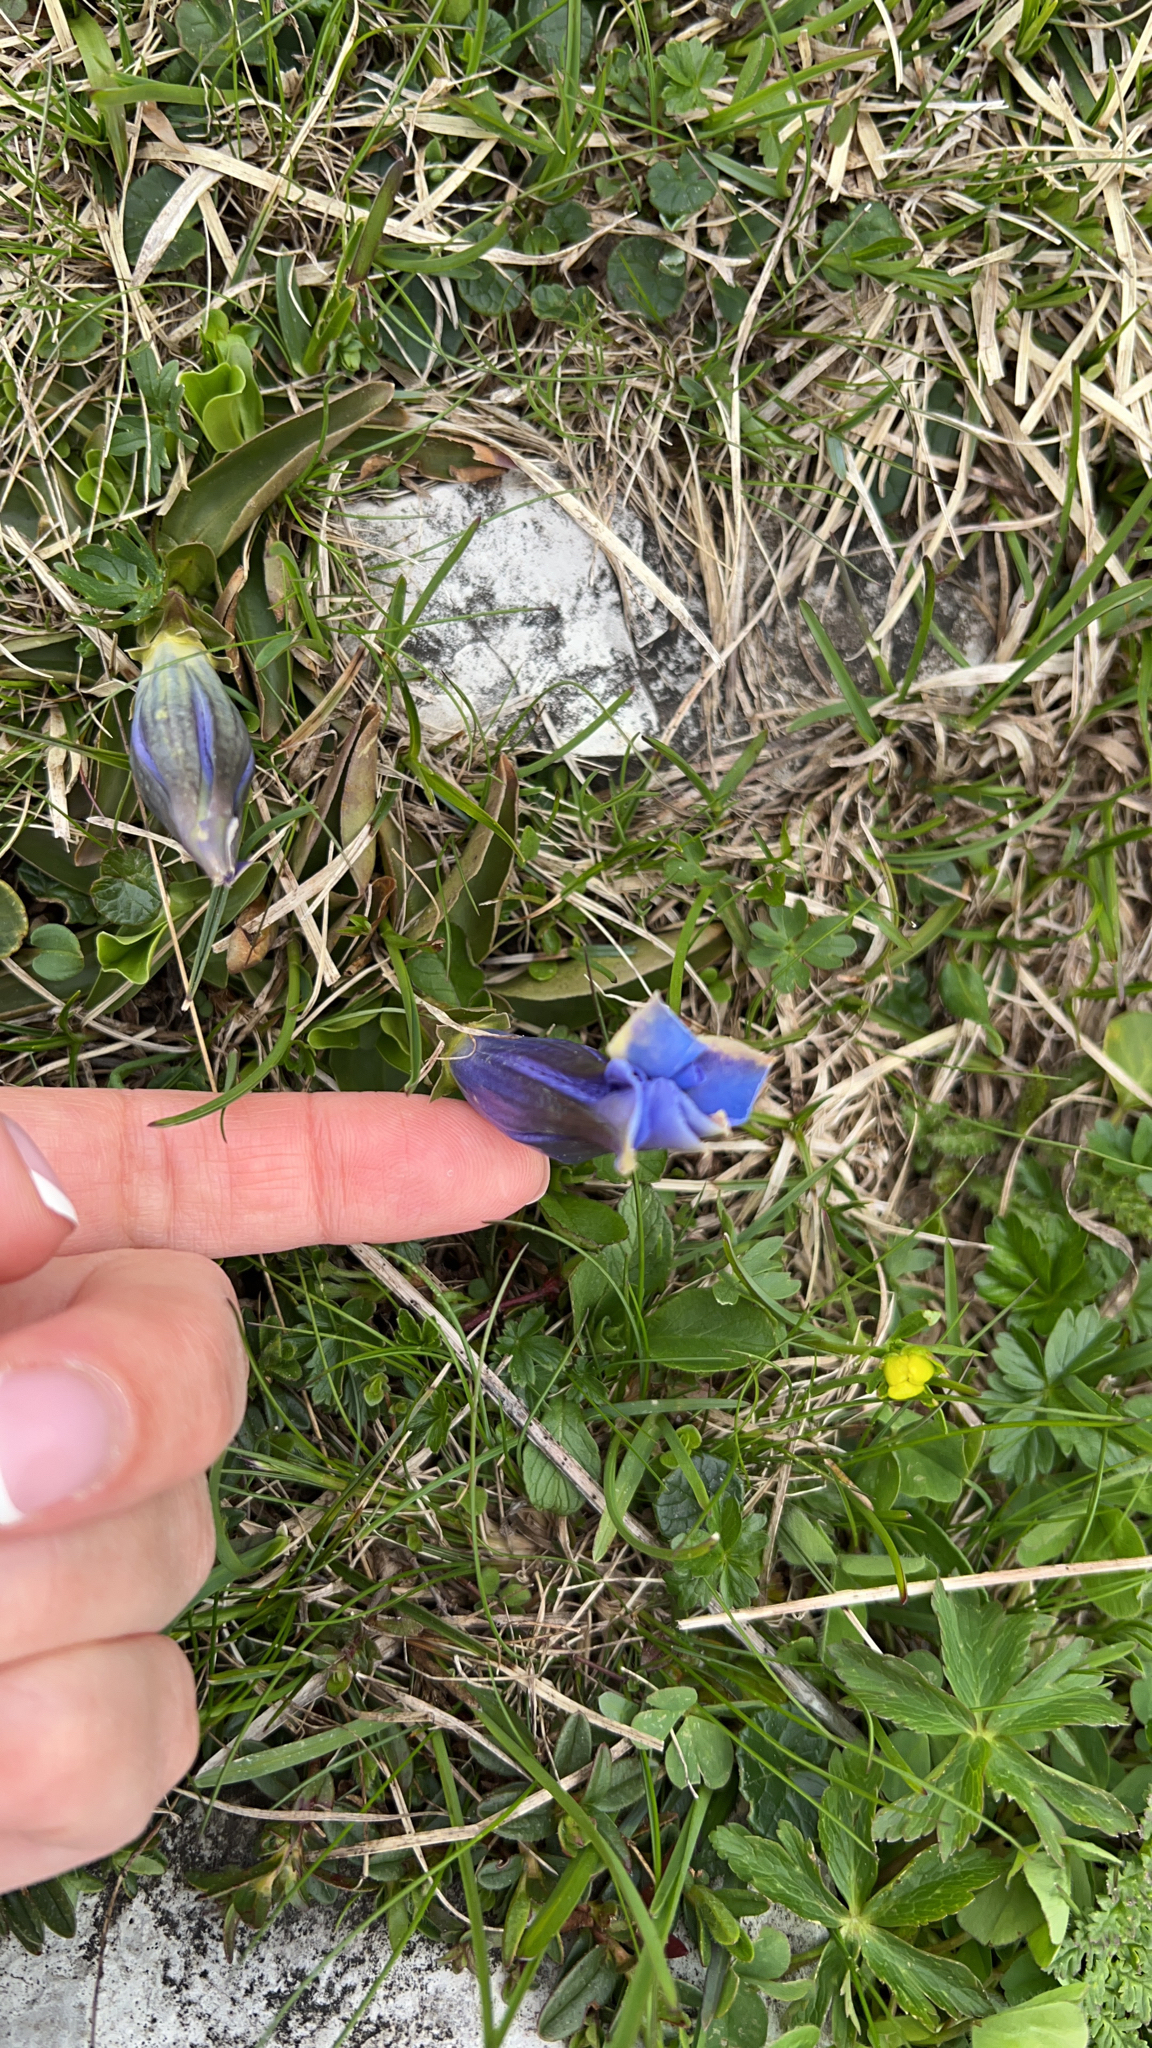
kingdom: Plantae
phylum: Tracheophyta
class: Magnoliopsida
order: Gentianales
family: Gentianaceae
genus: Gentiana
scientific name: Gentiana acaulis
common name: Trumpet gentian
